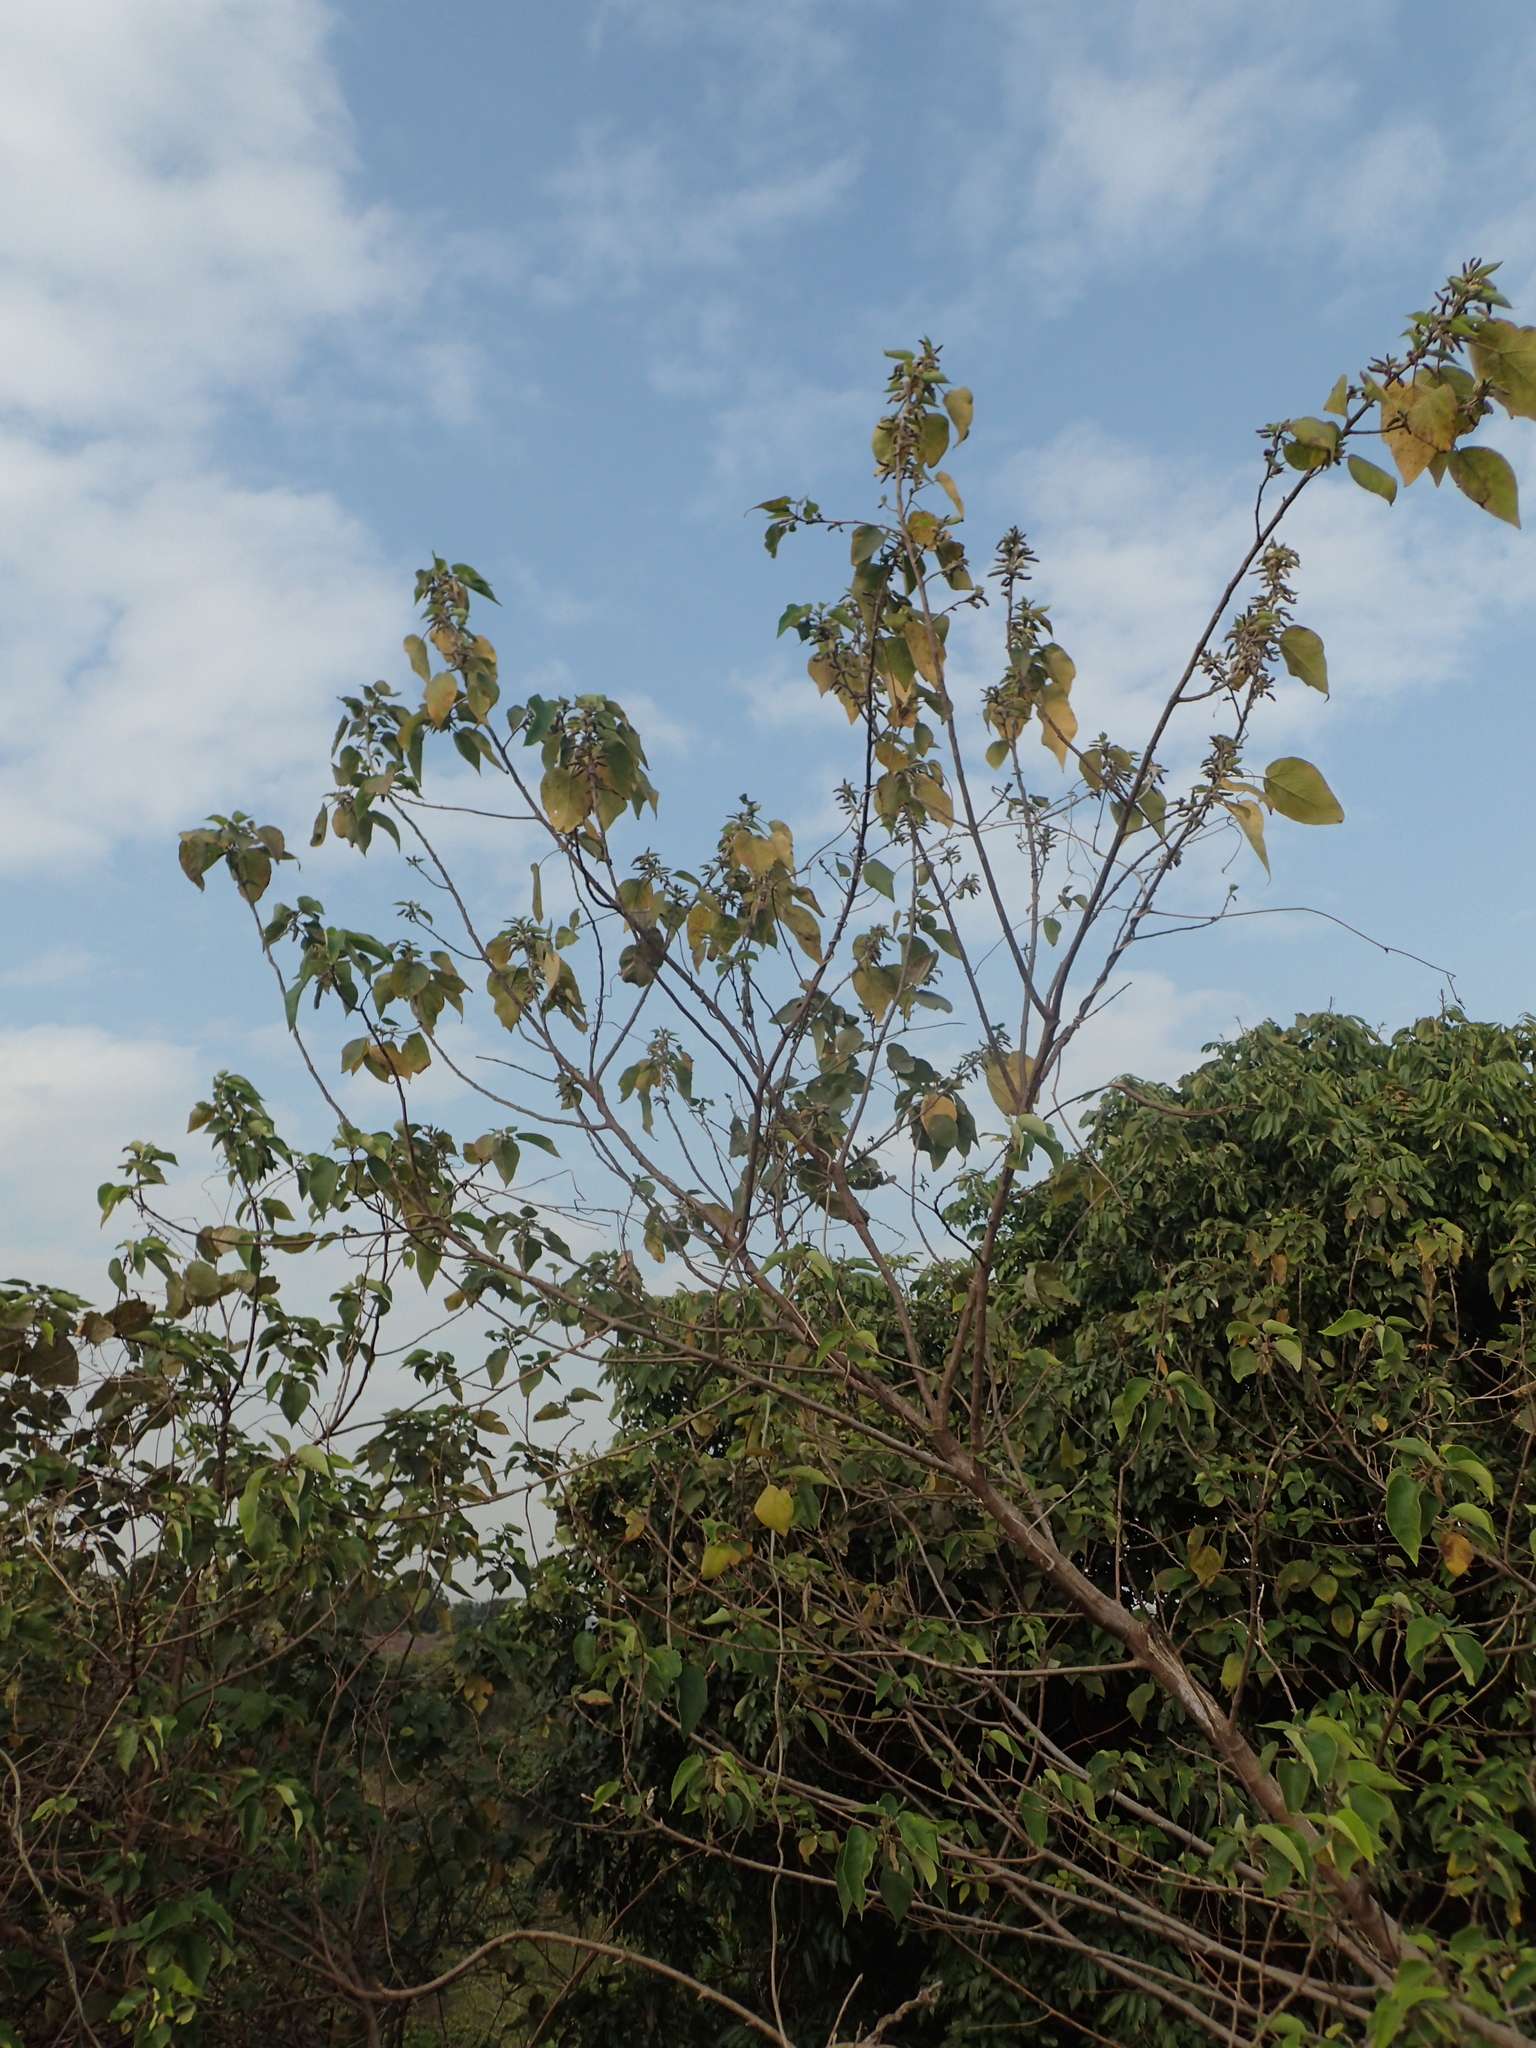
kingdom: Plantae
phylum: Tracheophyta
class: Magnoliopsida
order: Rosales
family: Moraceae
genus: Broussonetia
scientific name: Broussonetia papyrifera
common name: Paper mulberry
